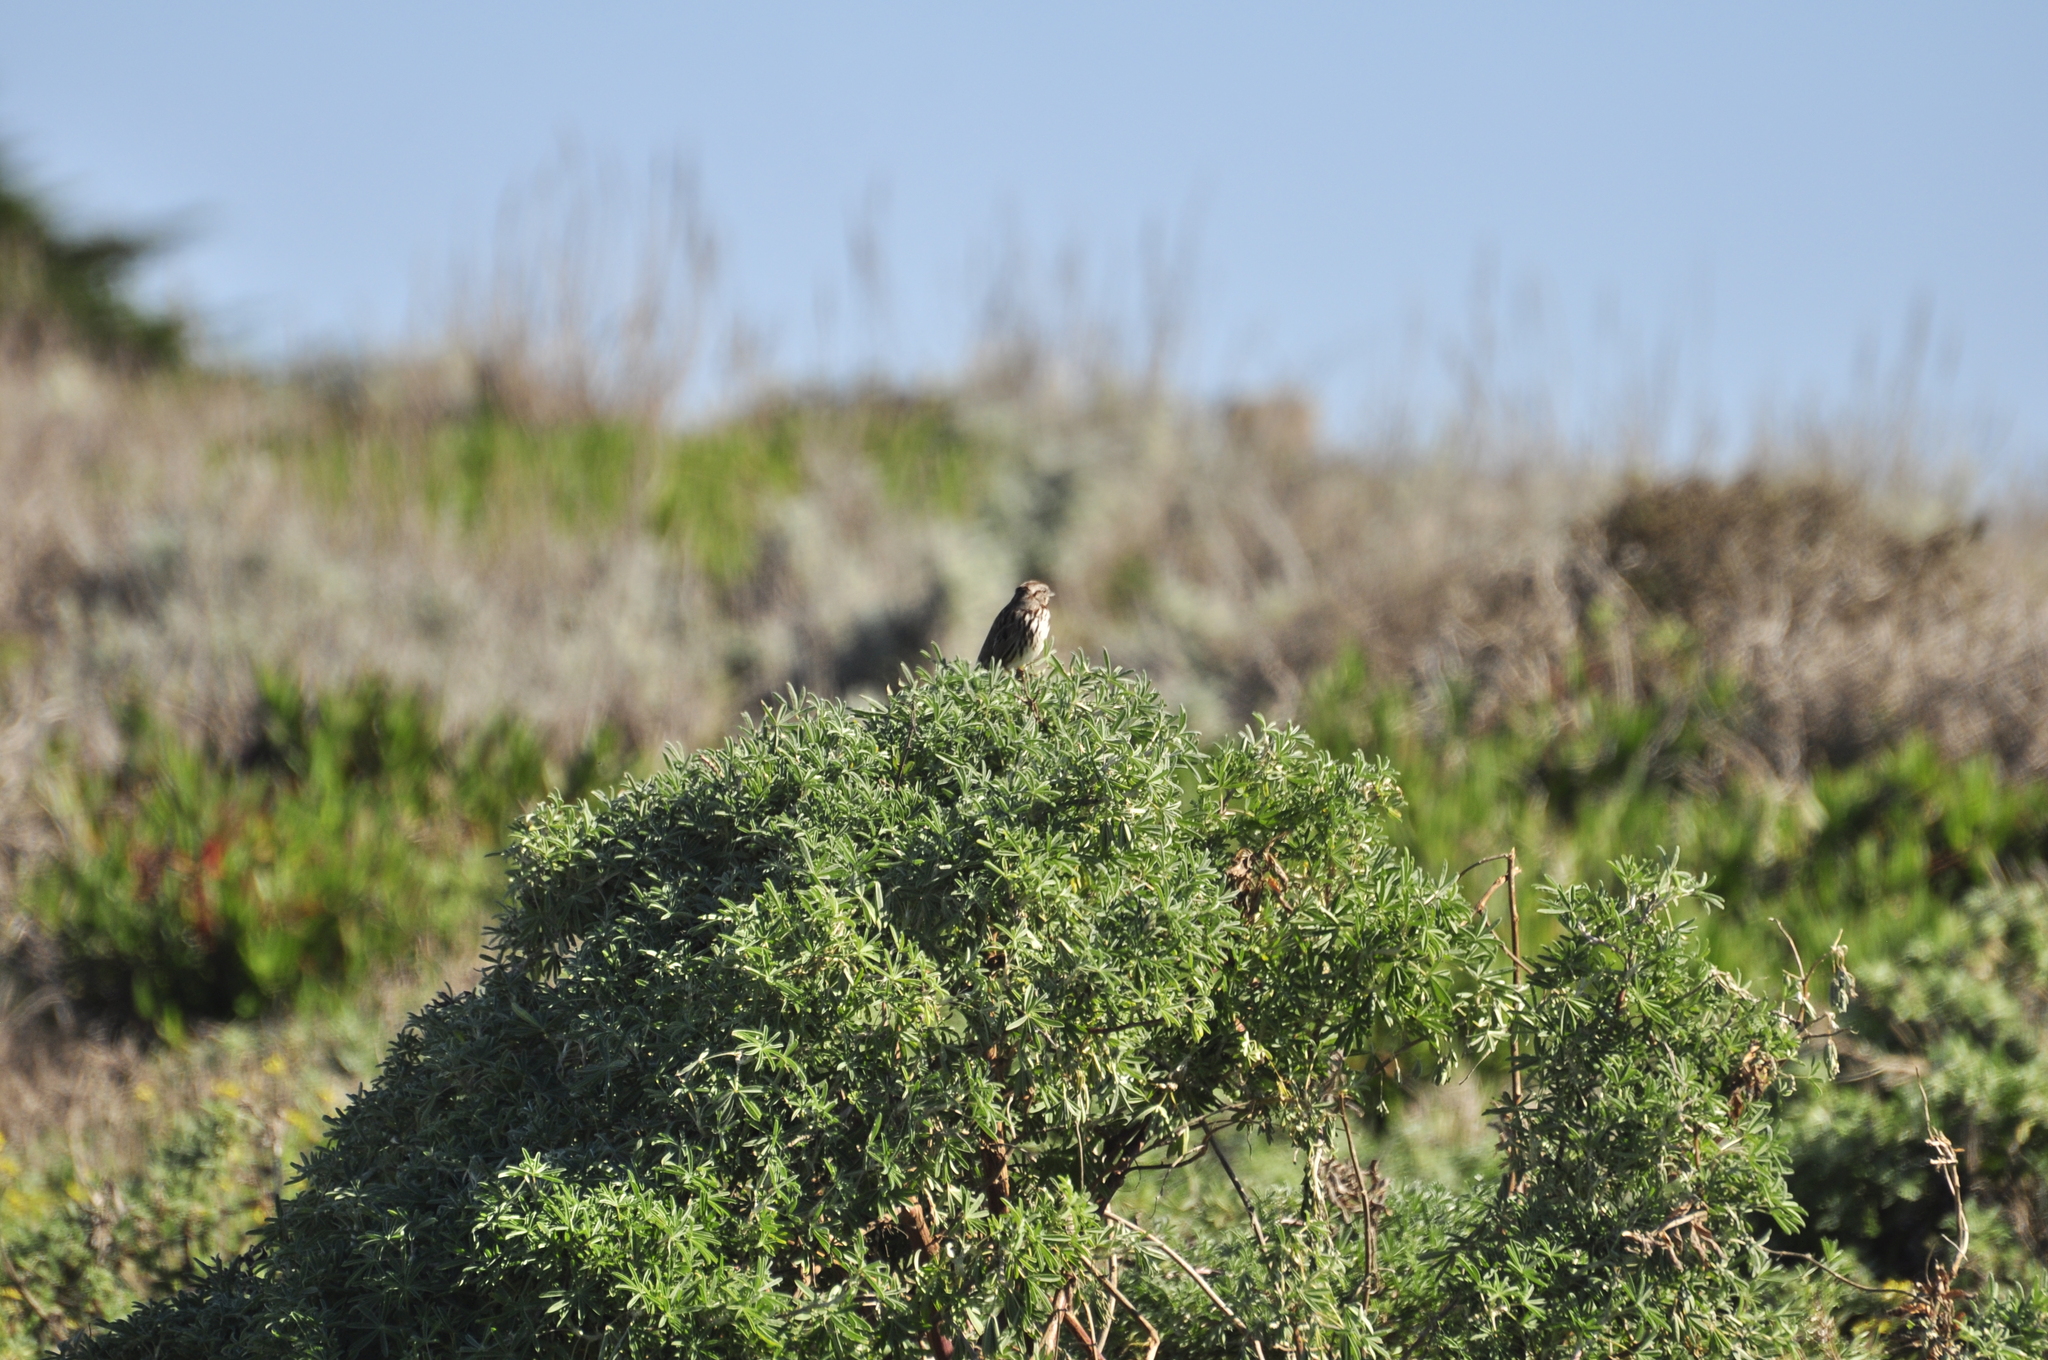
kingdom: Animalia
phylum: Chordata
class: Aves
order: Passeriformes
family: Passerellidae
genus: Melospiza
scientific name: Melospiza melodia
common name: Song sparrow
